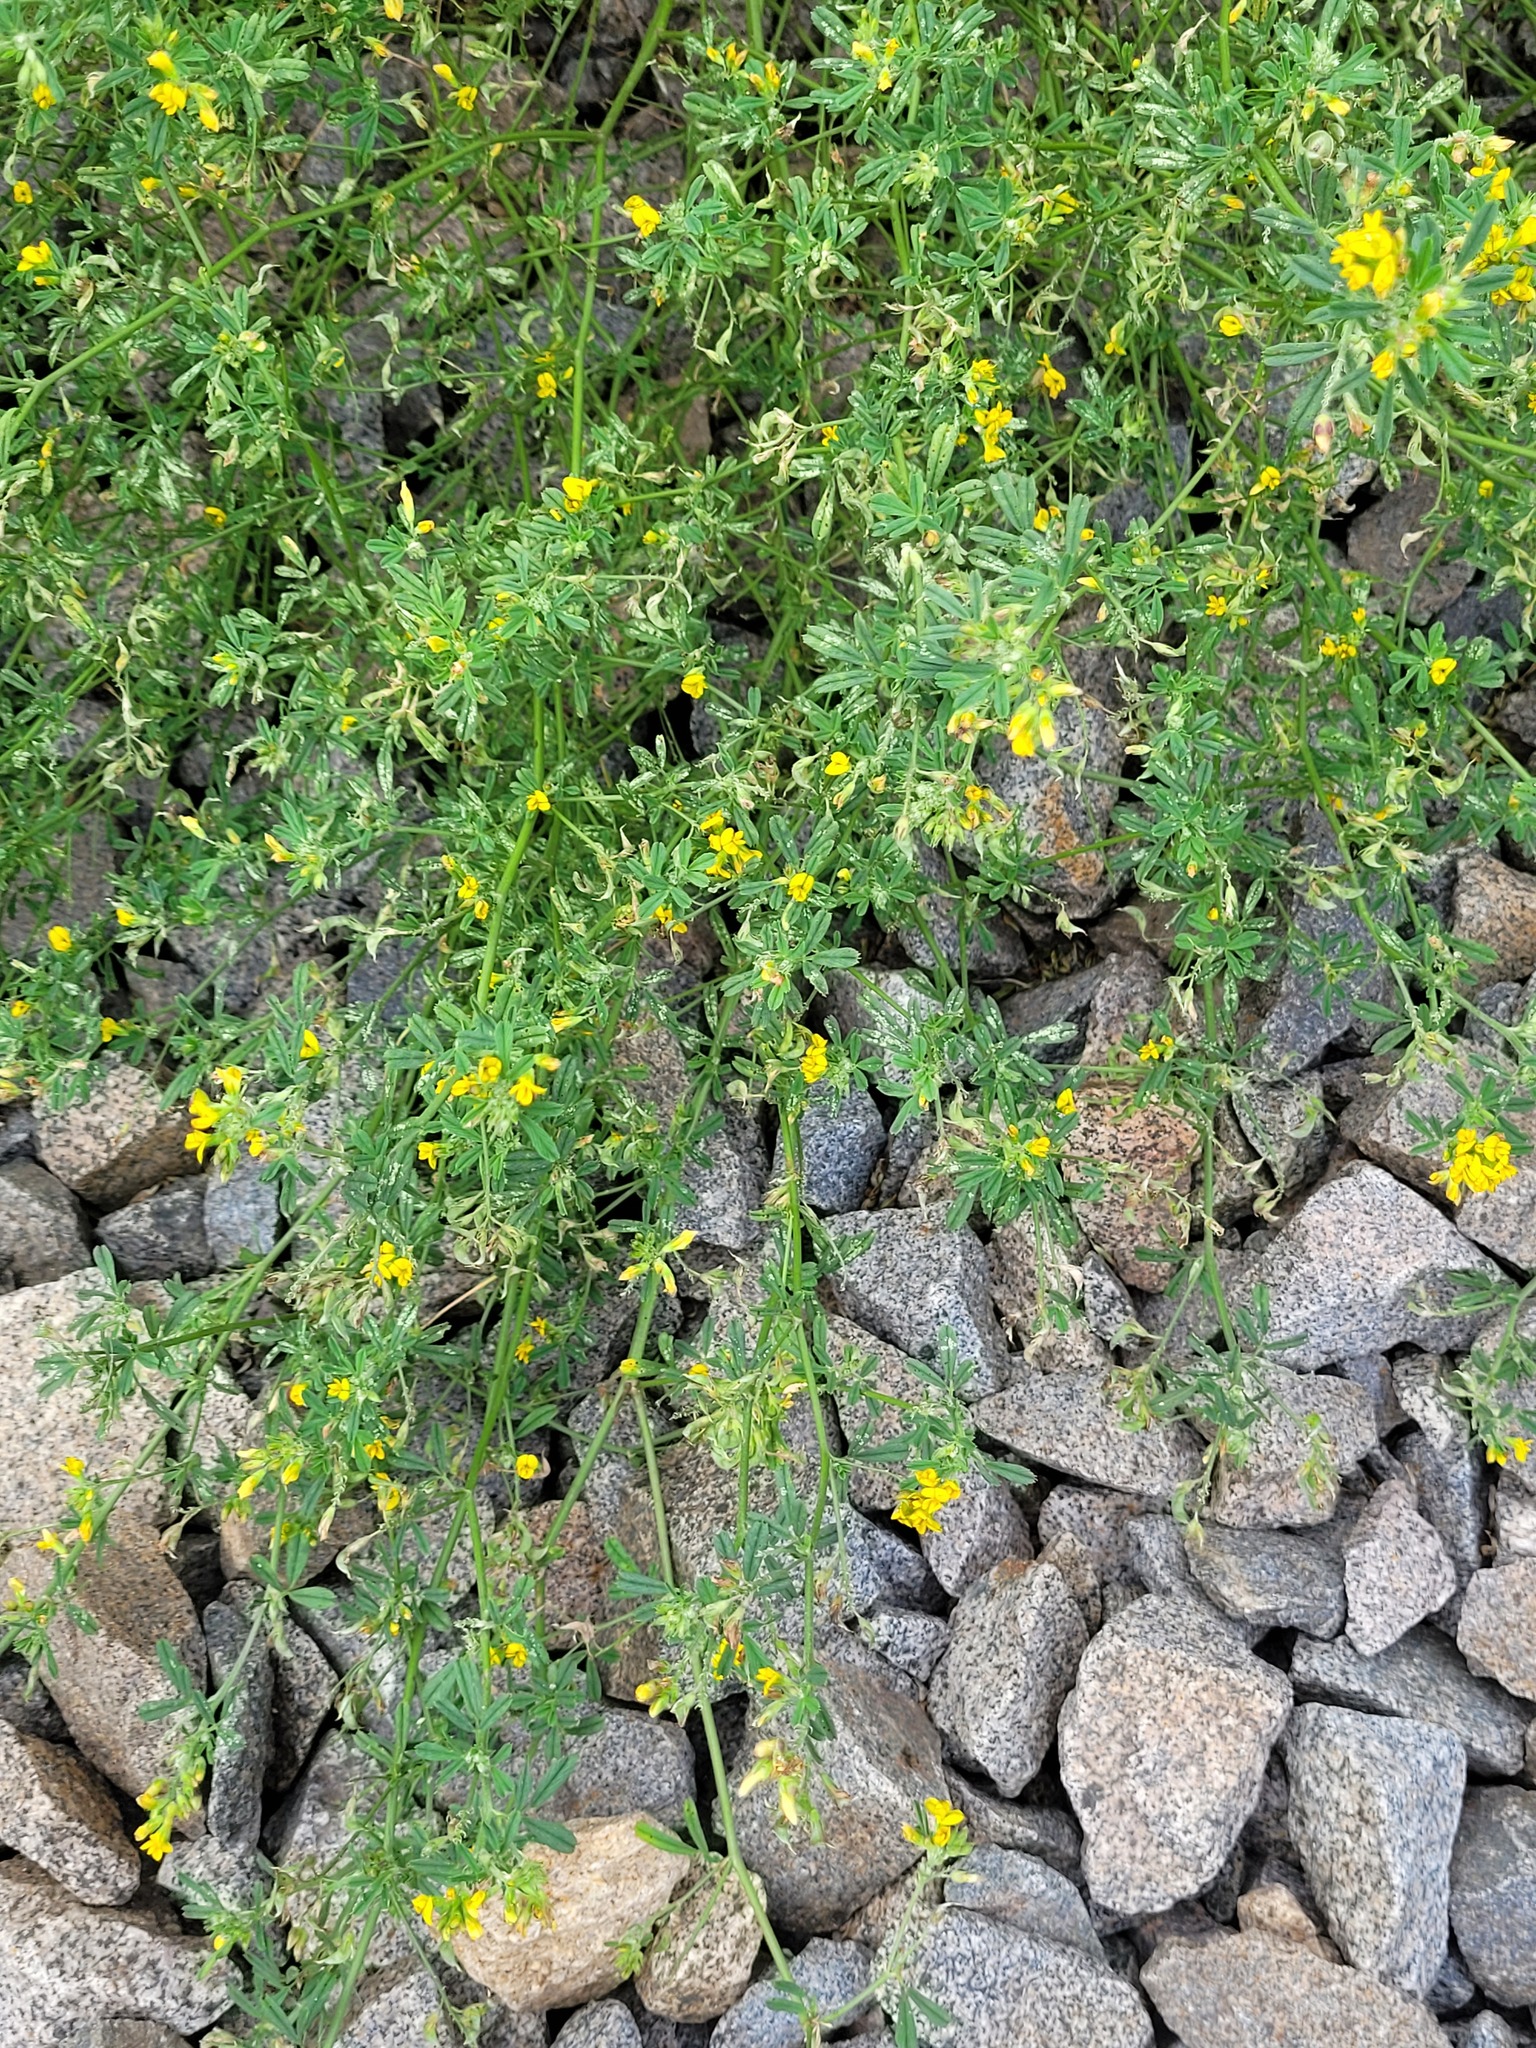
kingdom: Plantae
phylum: Tracheophyta
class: Magnoliopsida
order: Fabales
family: Fabaceae
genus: Medicago
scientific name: Medicago falcata
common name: Sickle medick
